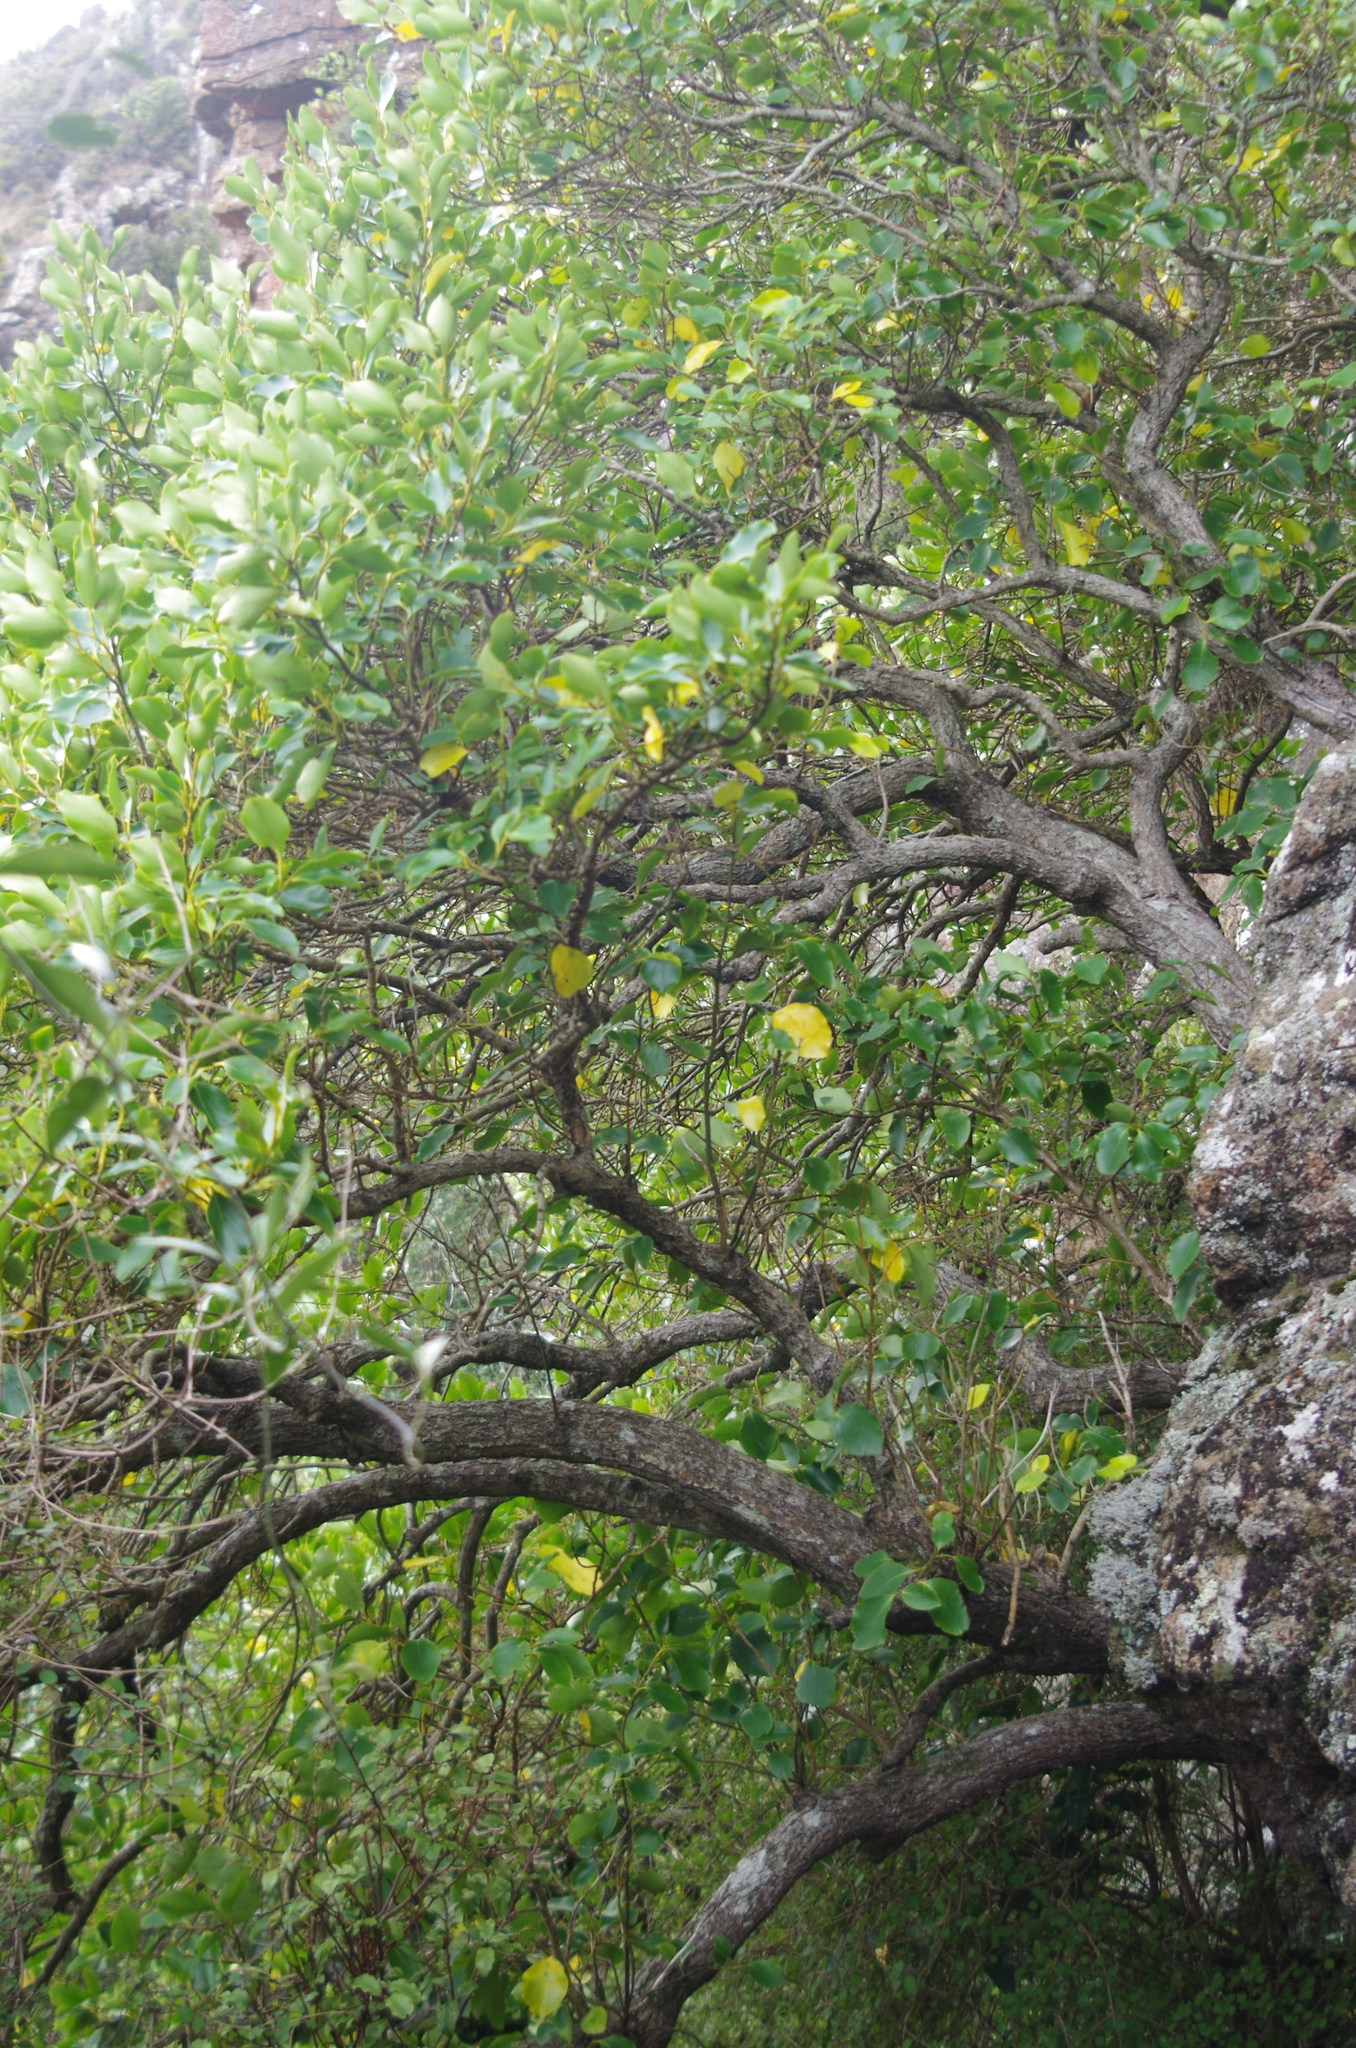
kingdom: Plantae
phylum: Tracheophyta
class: Magnoliopsida
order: Apiales
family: Griseliniaceae
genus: Griselinia
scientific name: Griselinia littoralis
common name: New zealand broadleaf
